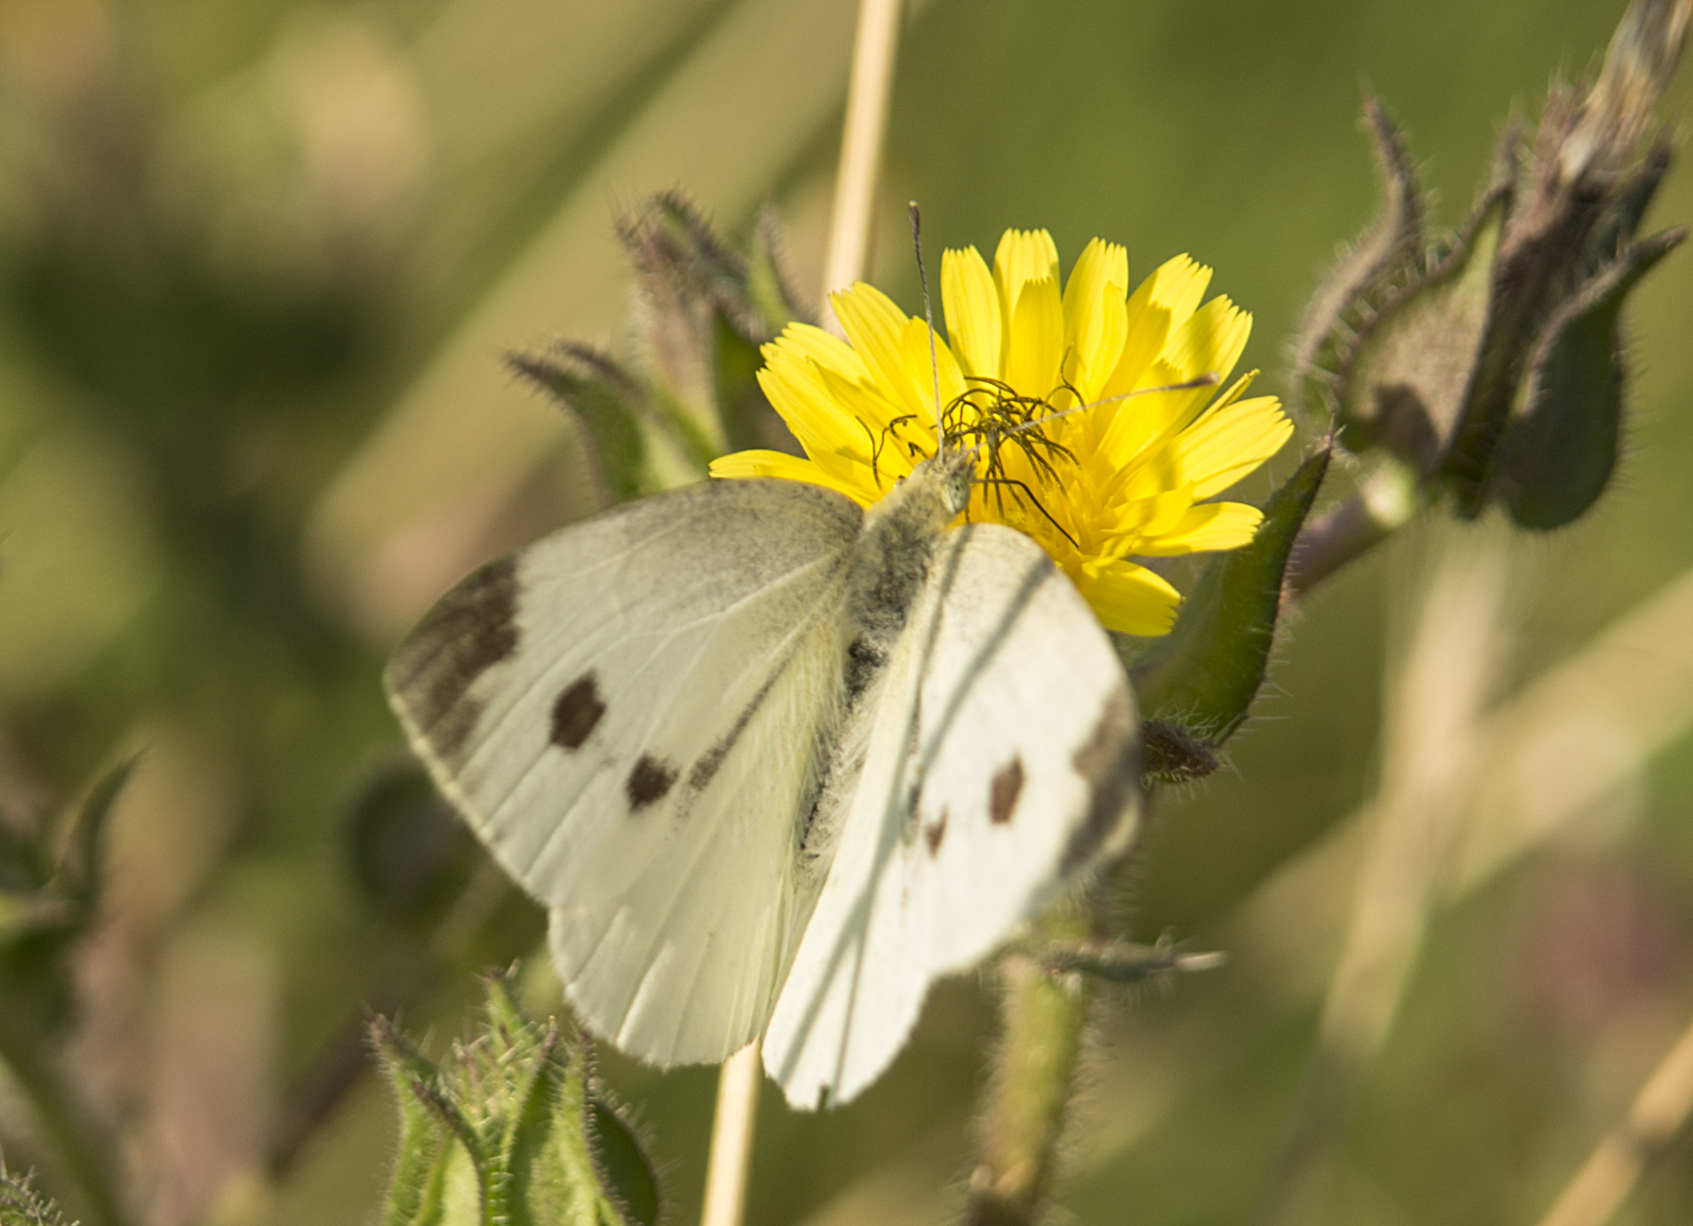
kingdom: Animalia
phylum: Arthropoda
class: Insecta
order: Lepidoptera
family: Pieridae
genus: Pieris
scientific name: Pieris rapae
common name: Small white
